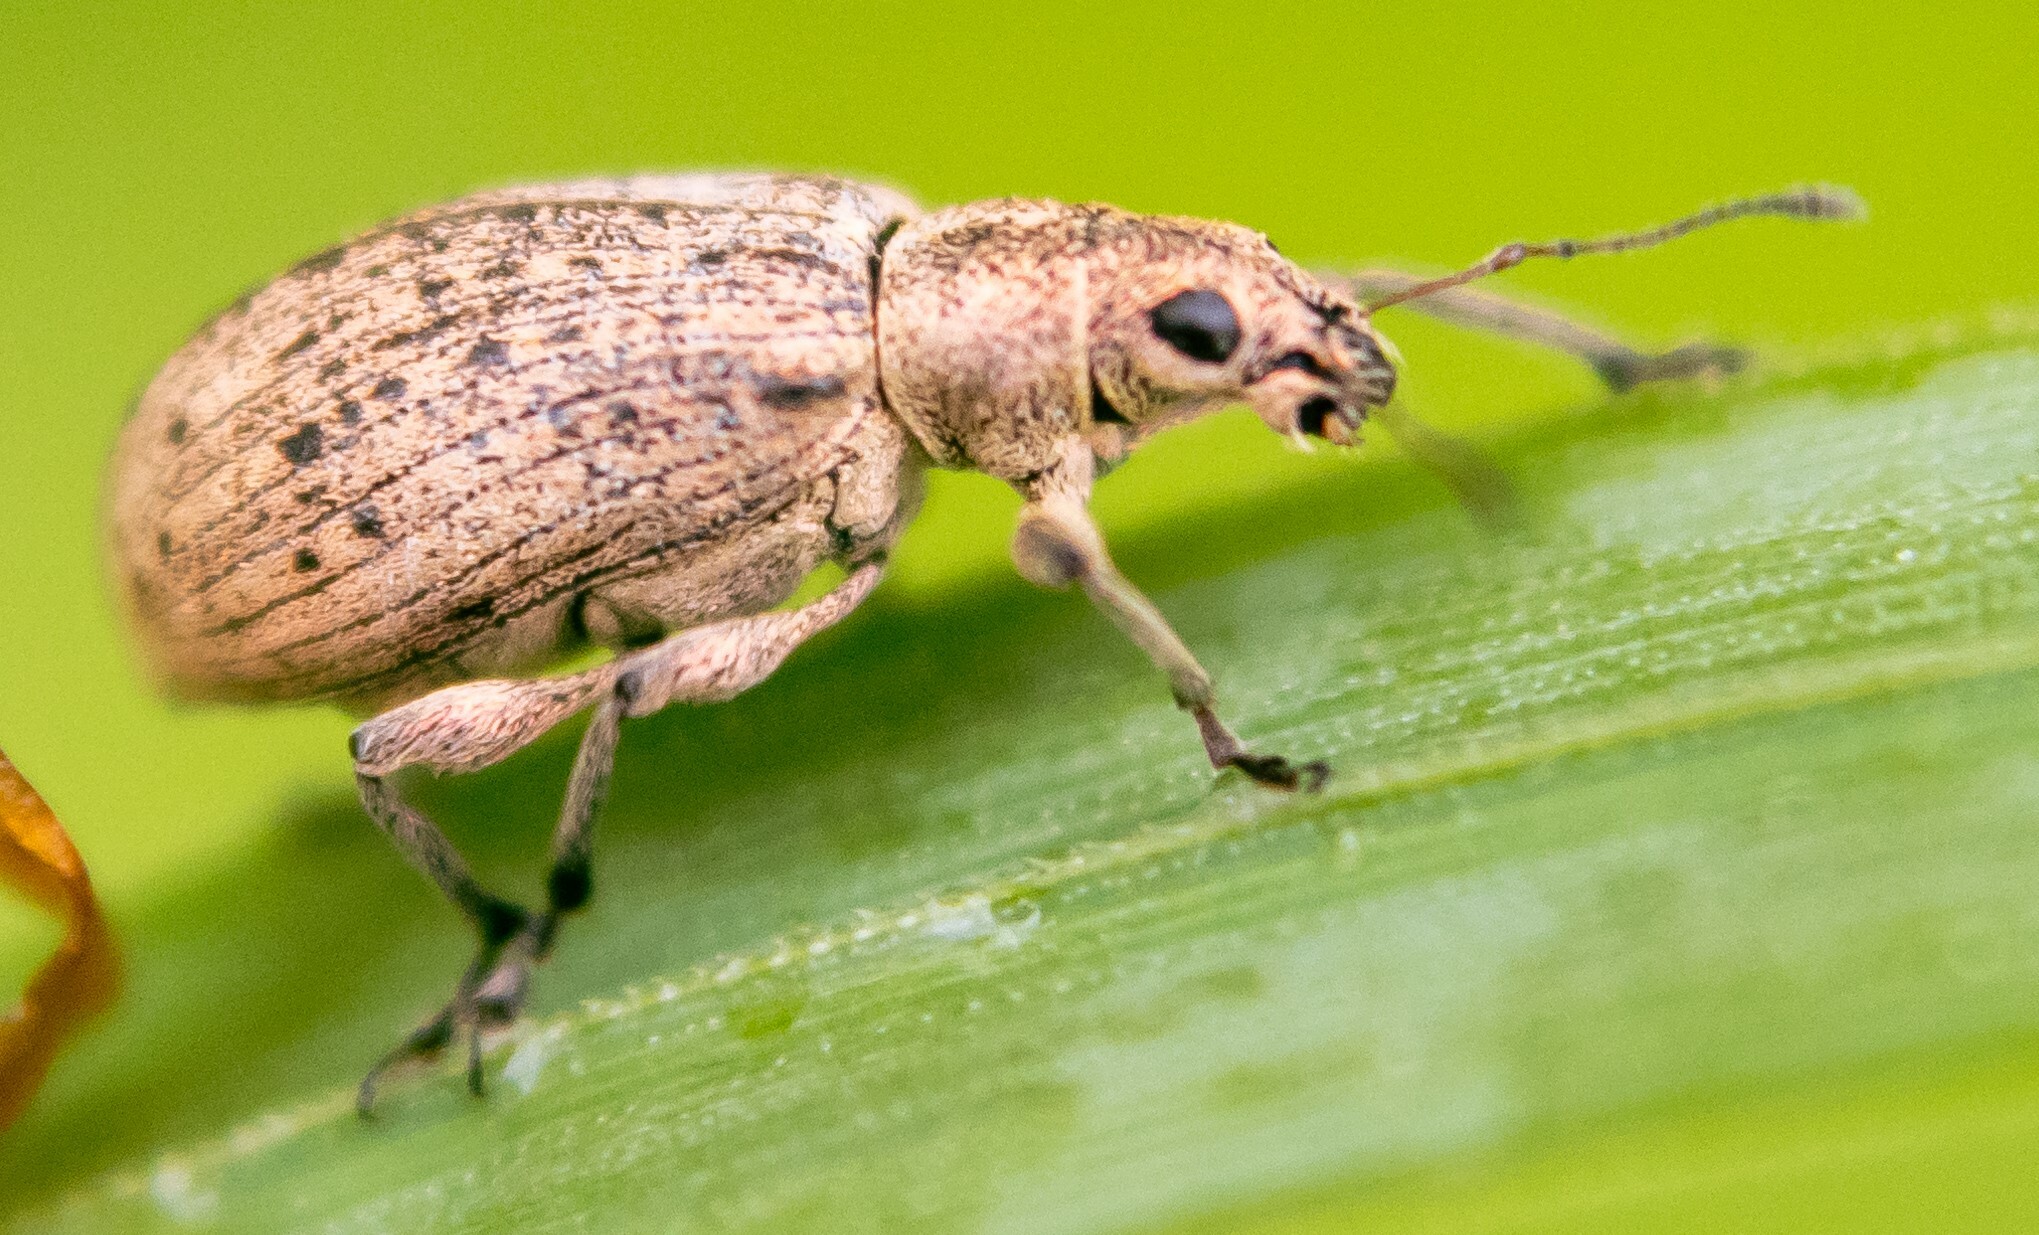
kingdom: Animalia
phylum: Arthropoda
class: Insecta
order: Coleoptera
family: Curculionidae
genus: Polydrusus
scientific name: Polydrusus cervinus
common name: Weevil
